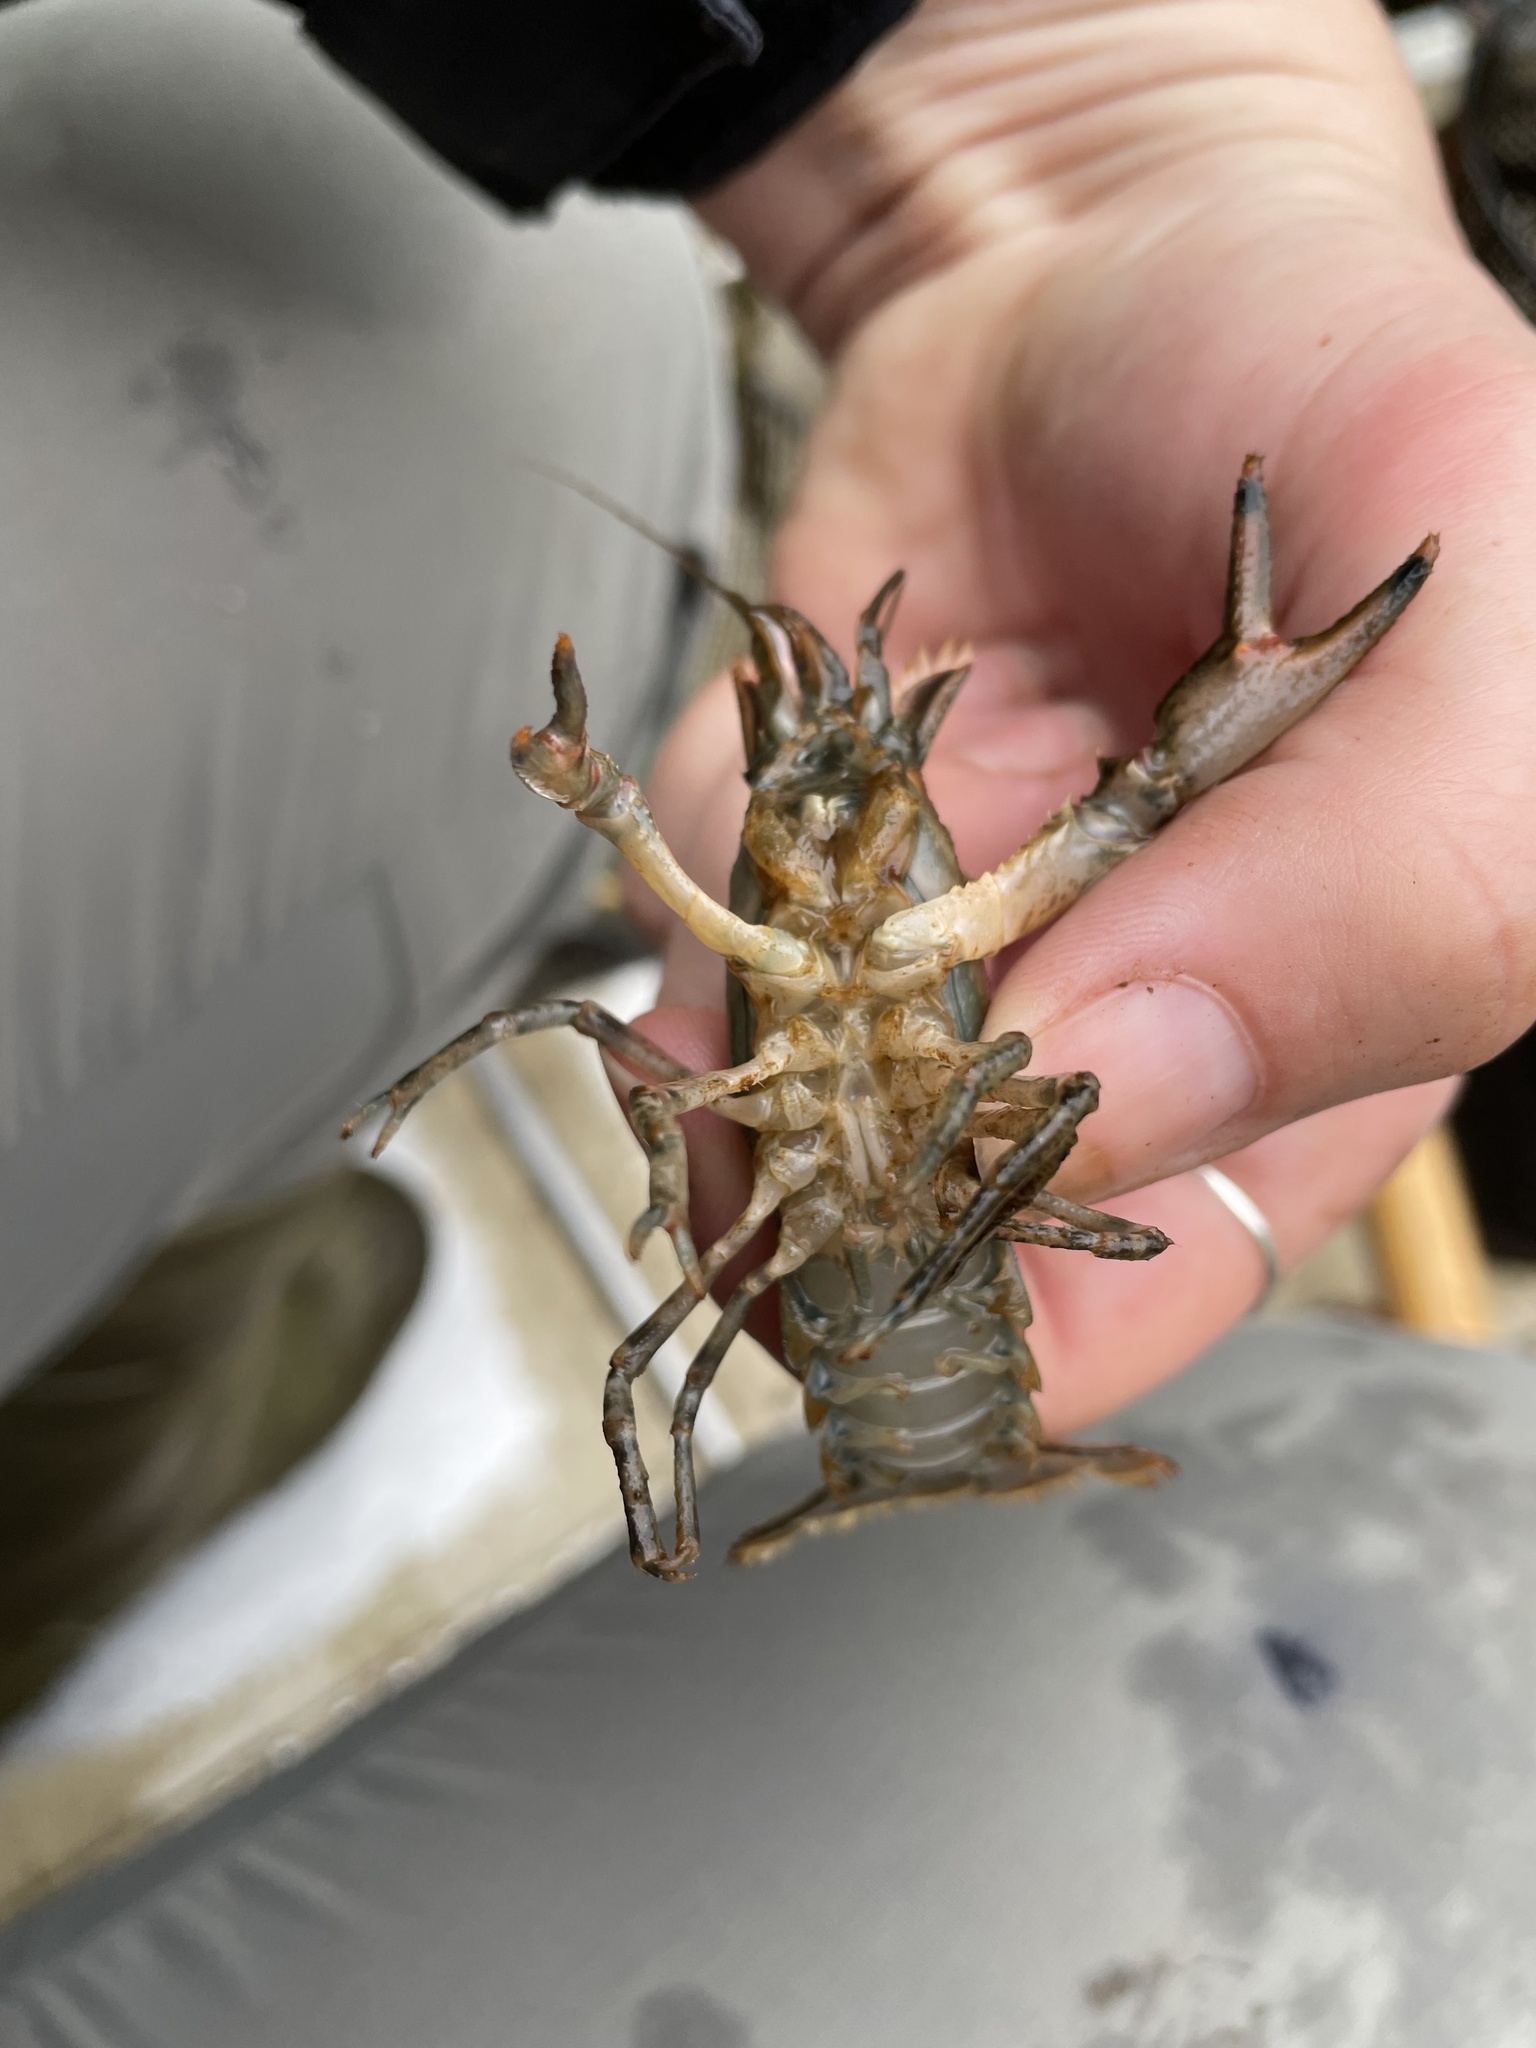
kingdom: Animalia
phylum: Arthropoda
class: Malacostraca
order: Decapoda
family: Cambaridae
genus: Faxonius
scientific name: Faxonius limosus
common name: American crayfish
